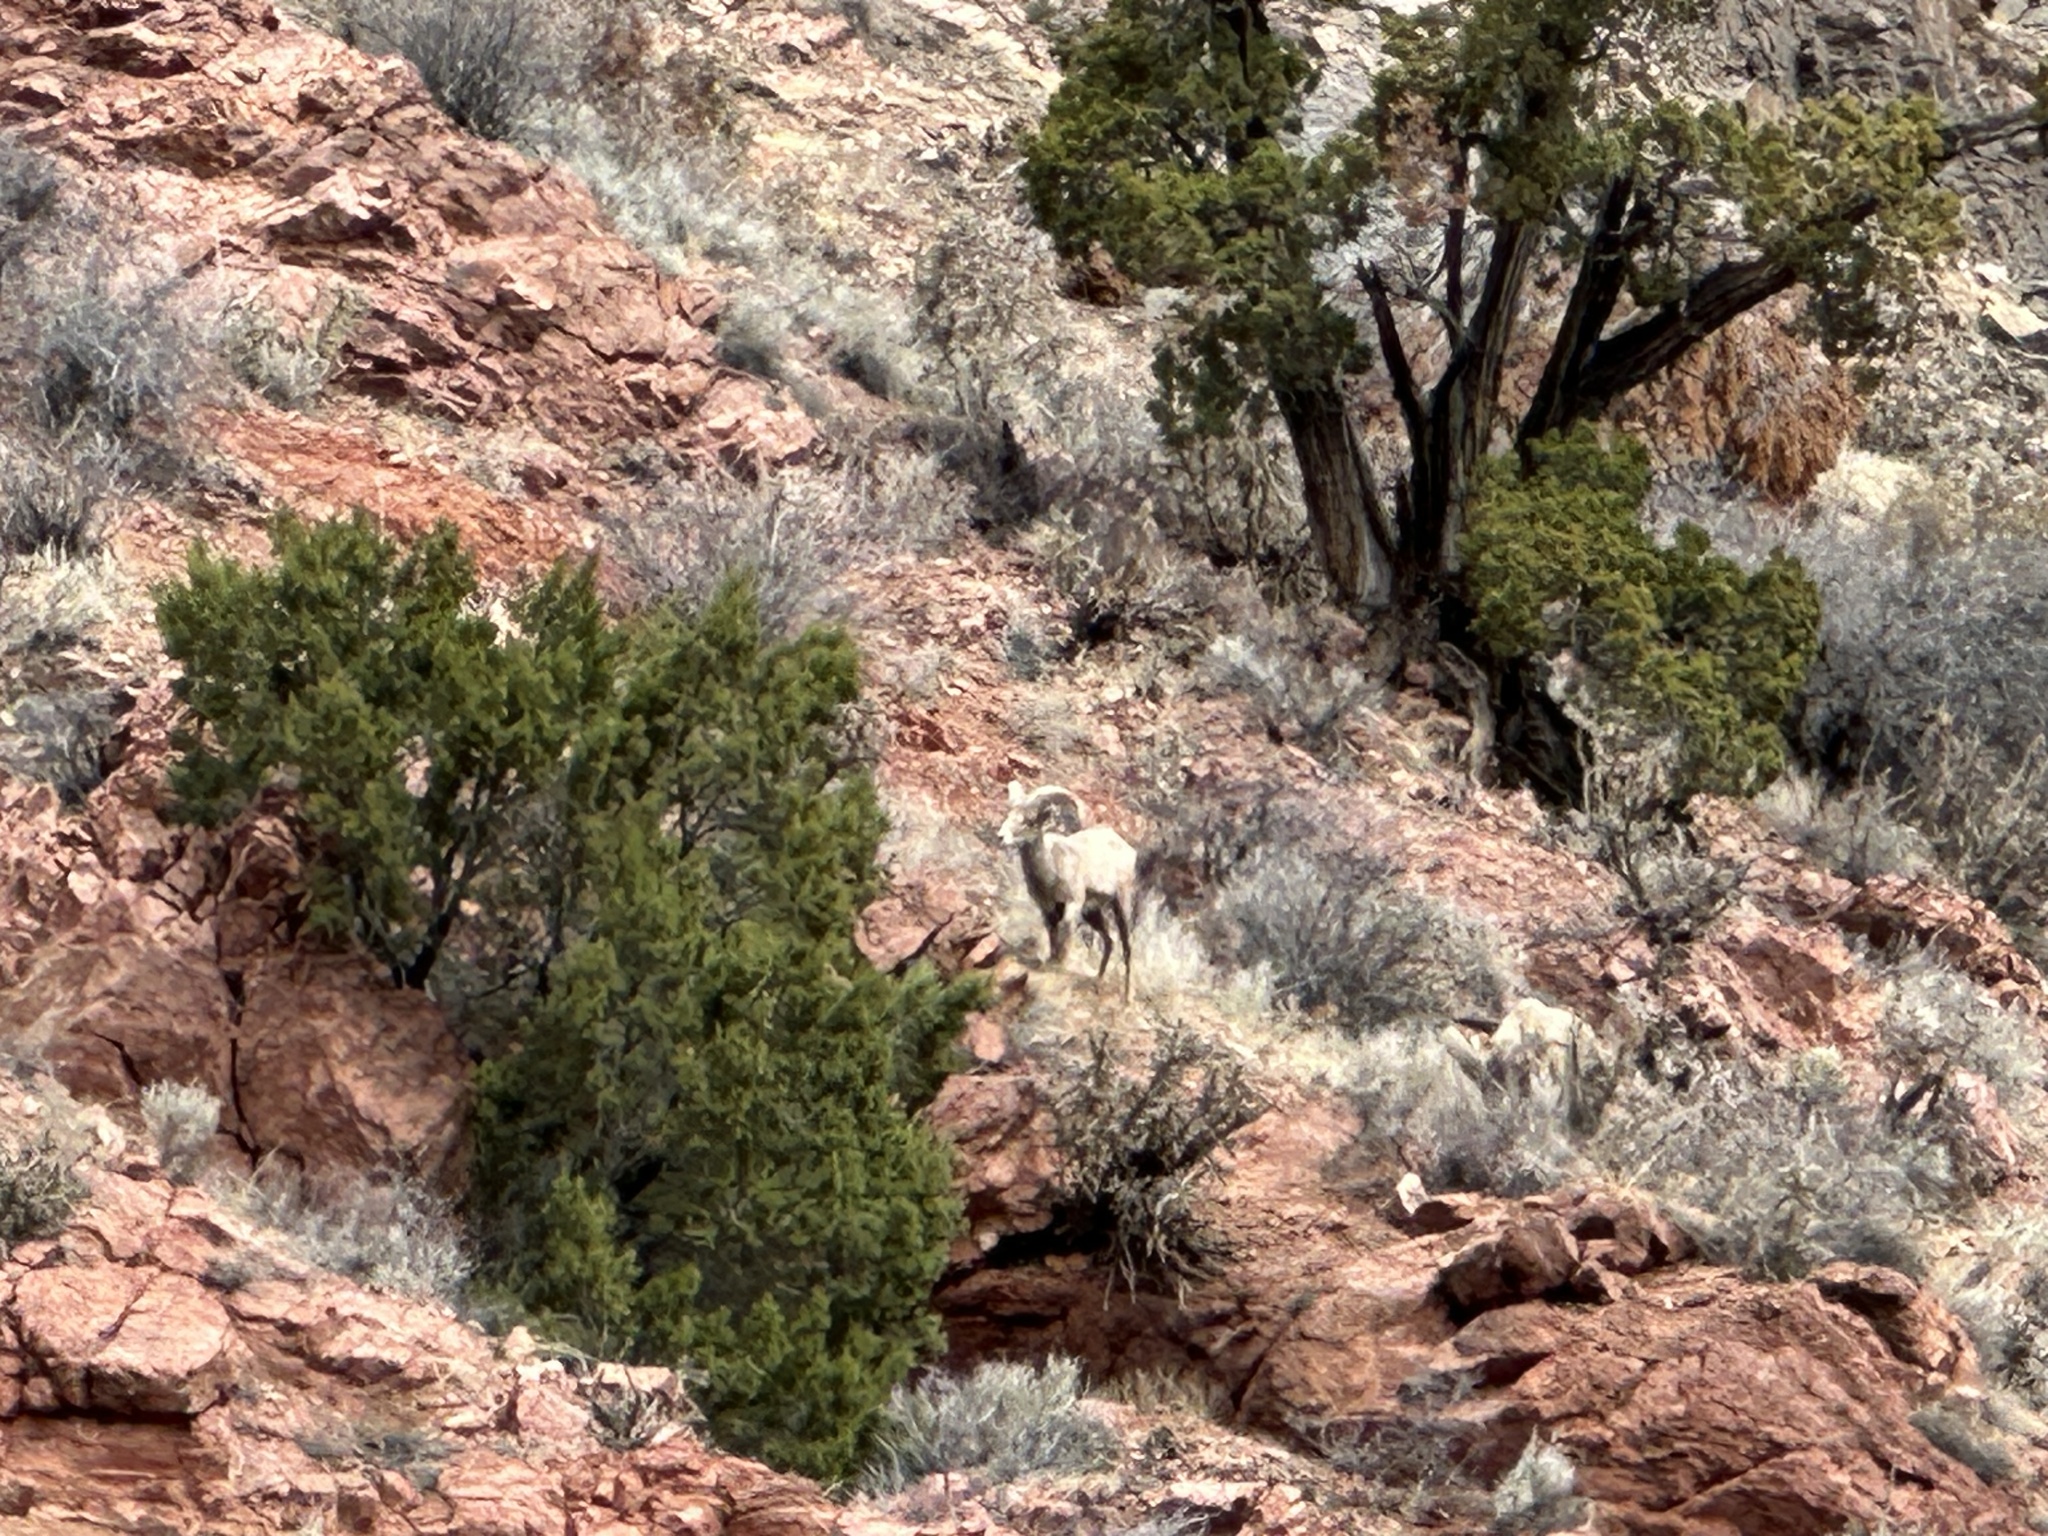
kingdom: Animalia
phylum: Chordata
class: Mammalia
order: Artiodactyla
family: Bovidae
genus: Ovis
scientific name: Ovis canadensis
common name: Bighorn sheep
